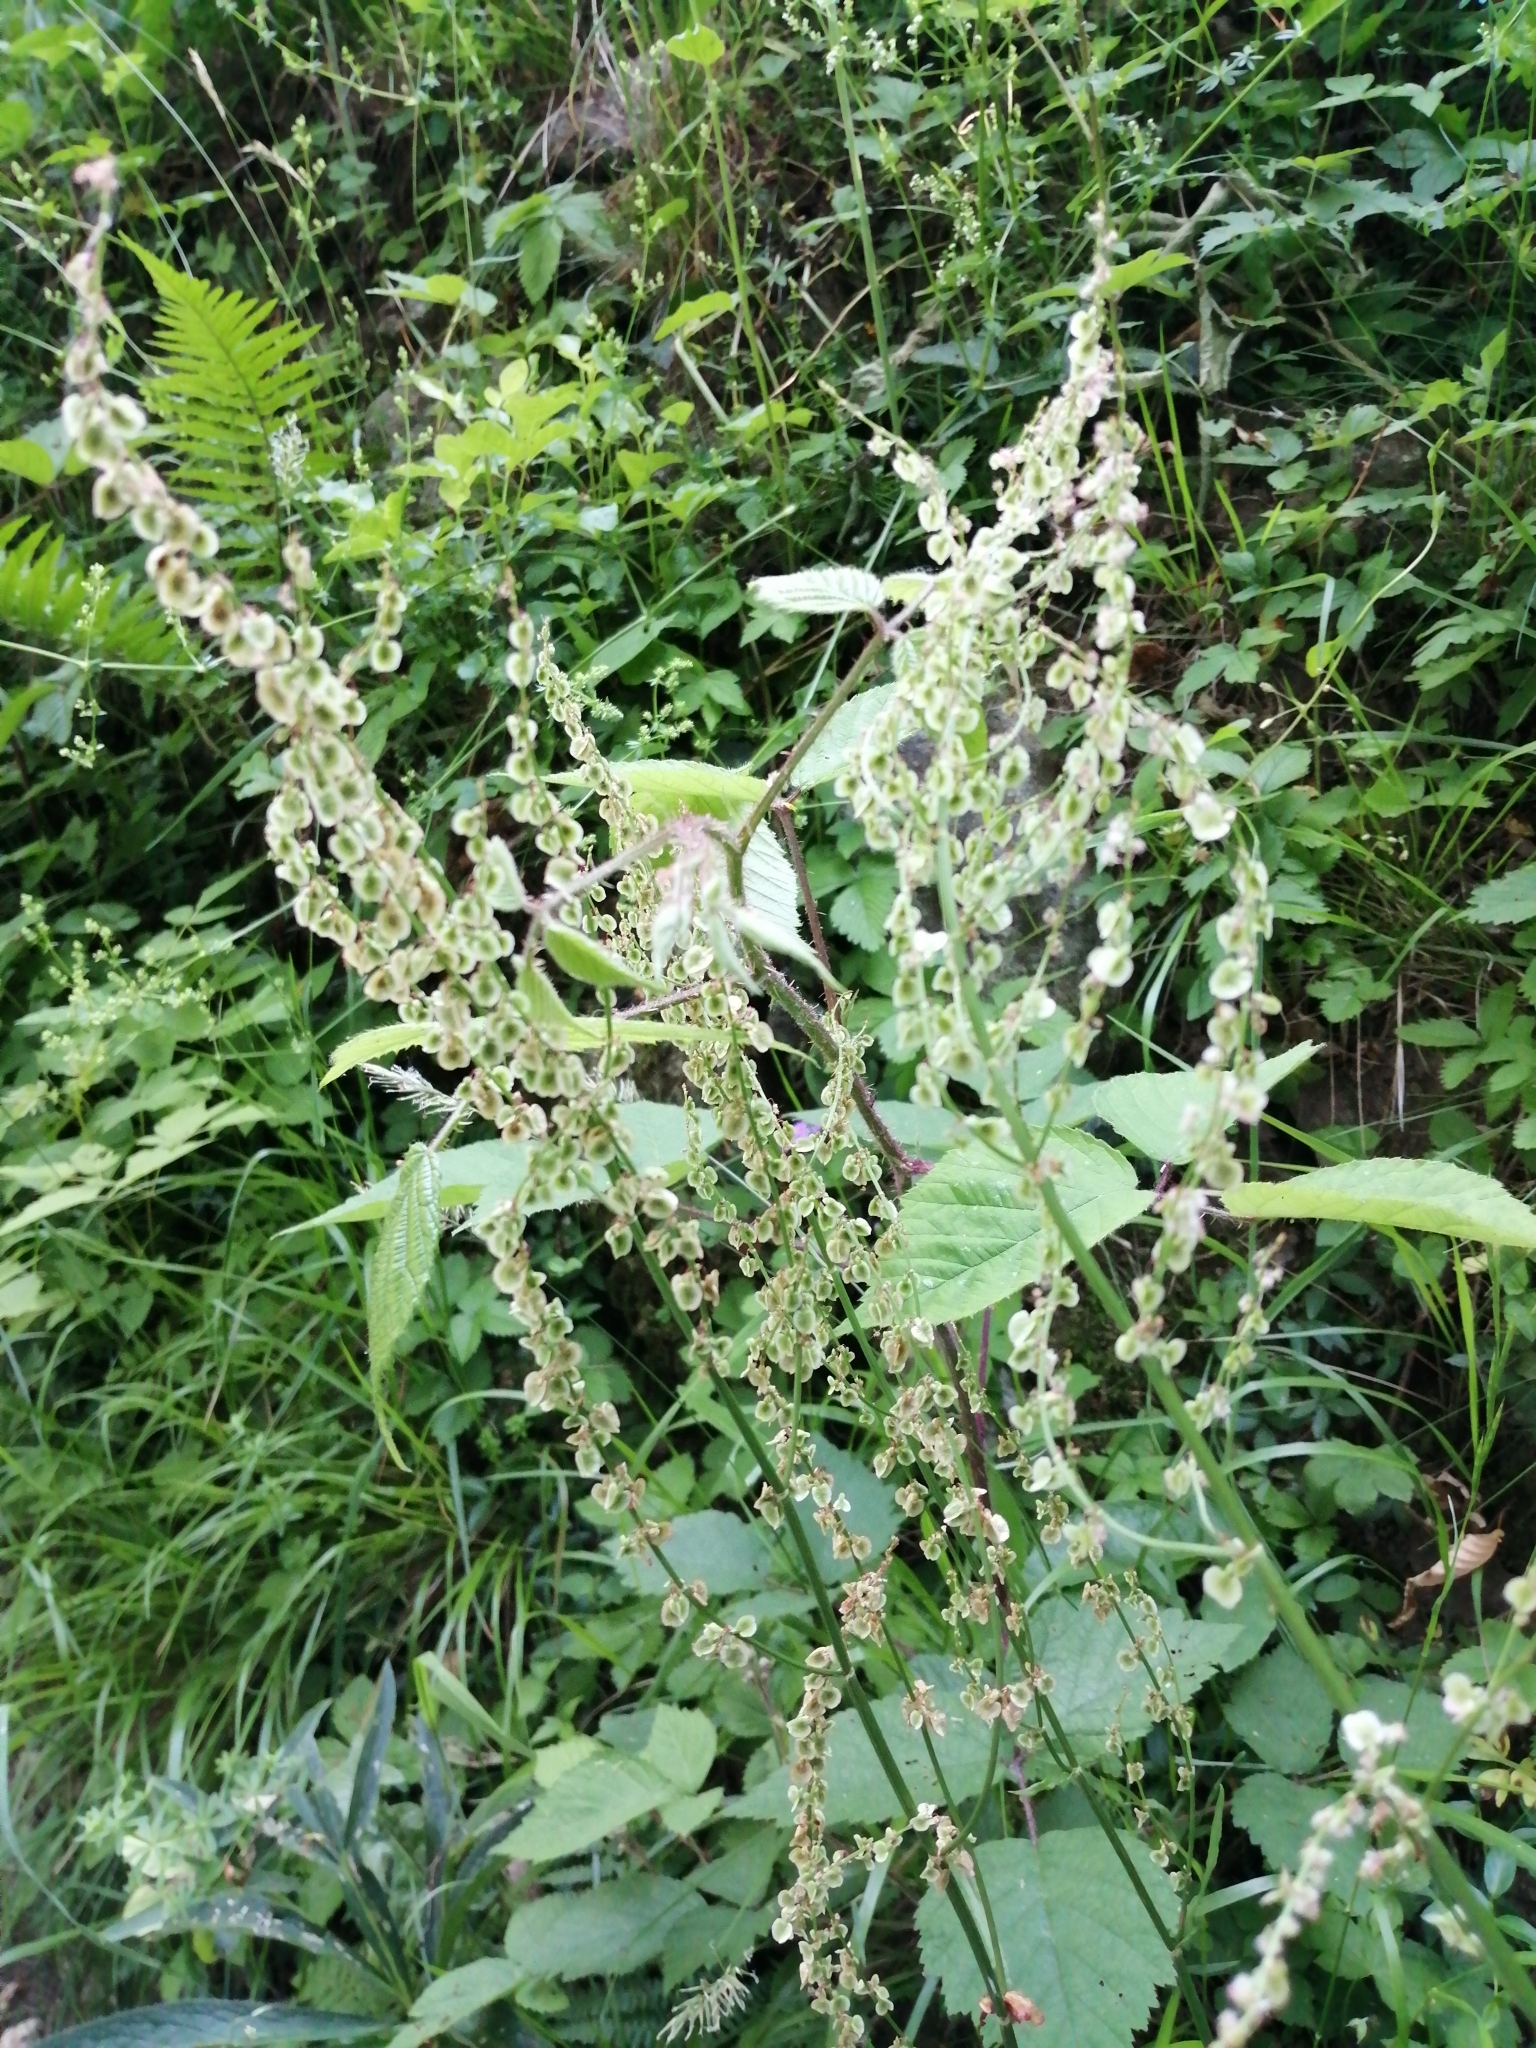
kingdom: Plantae
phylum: Tracheophyta
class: Magnoliopsida
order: Caryophyllales
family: Polygonaceae
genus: Rumex
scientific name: Rumex acetosa
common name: Garden sorrel
